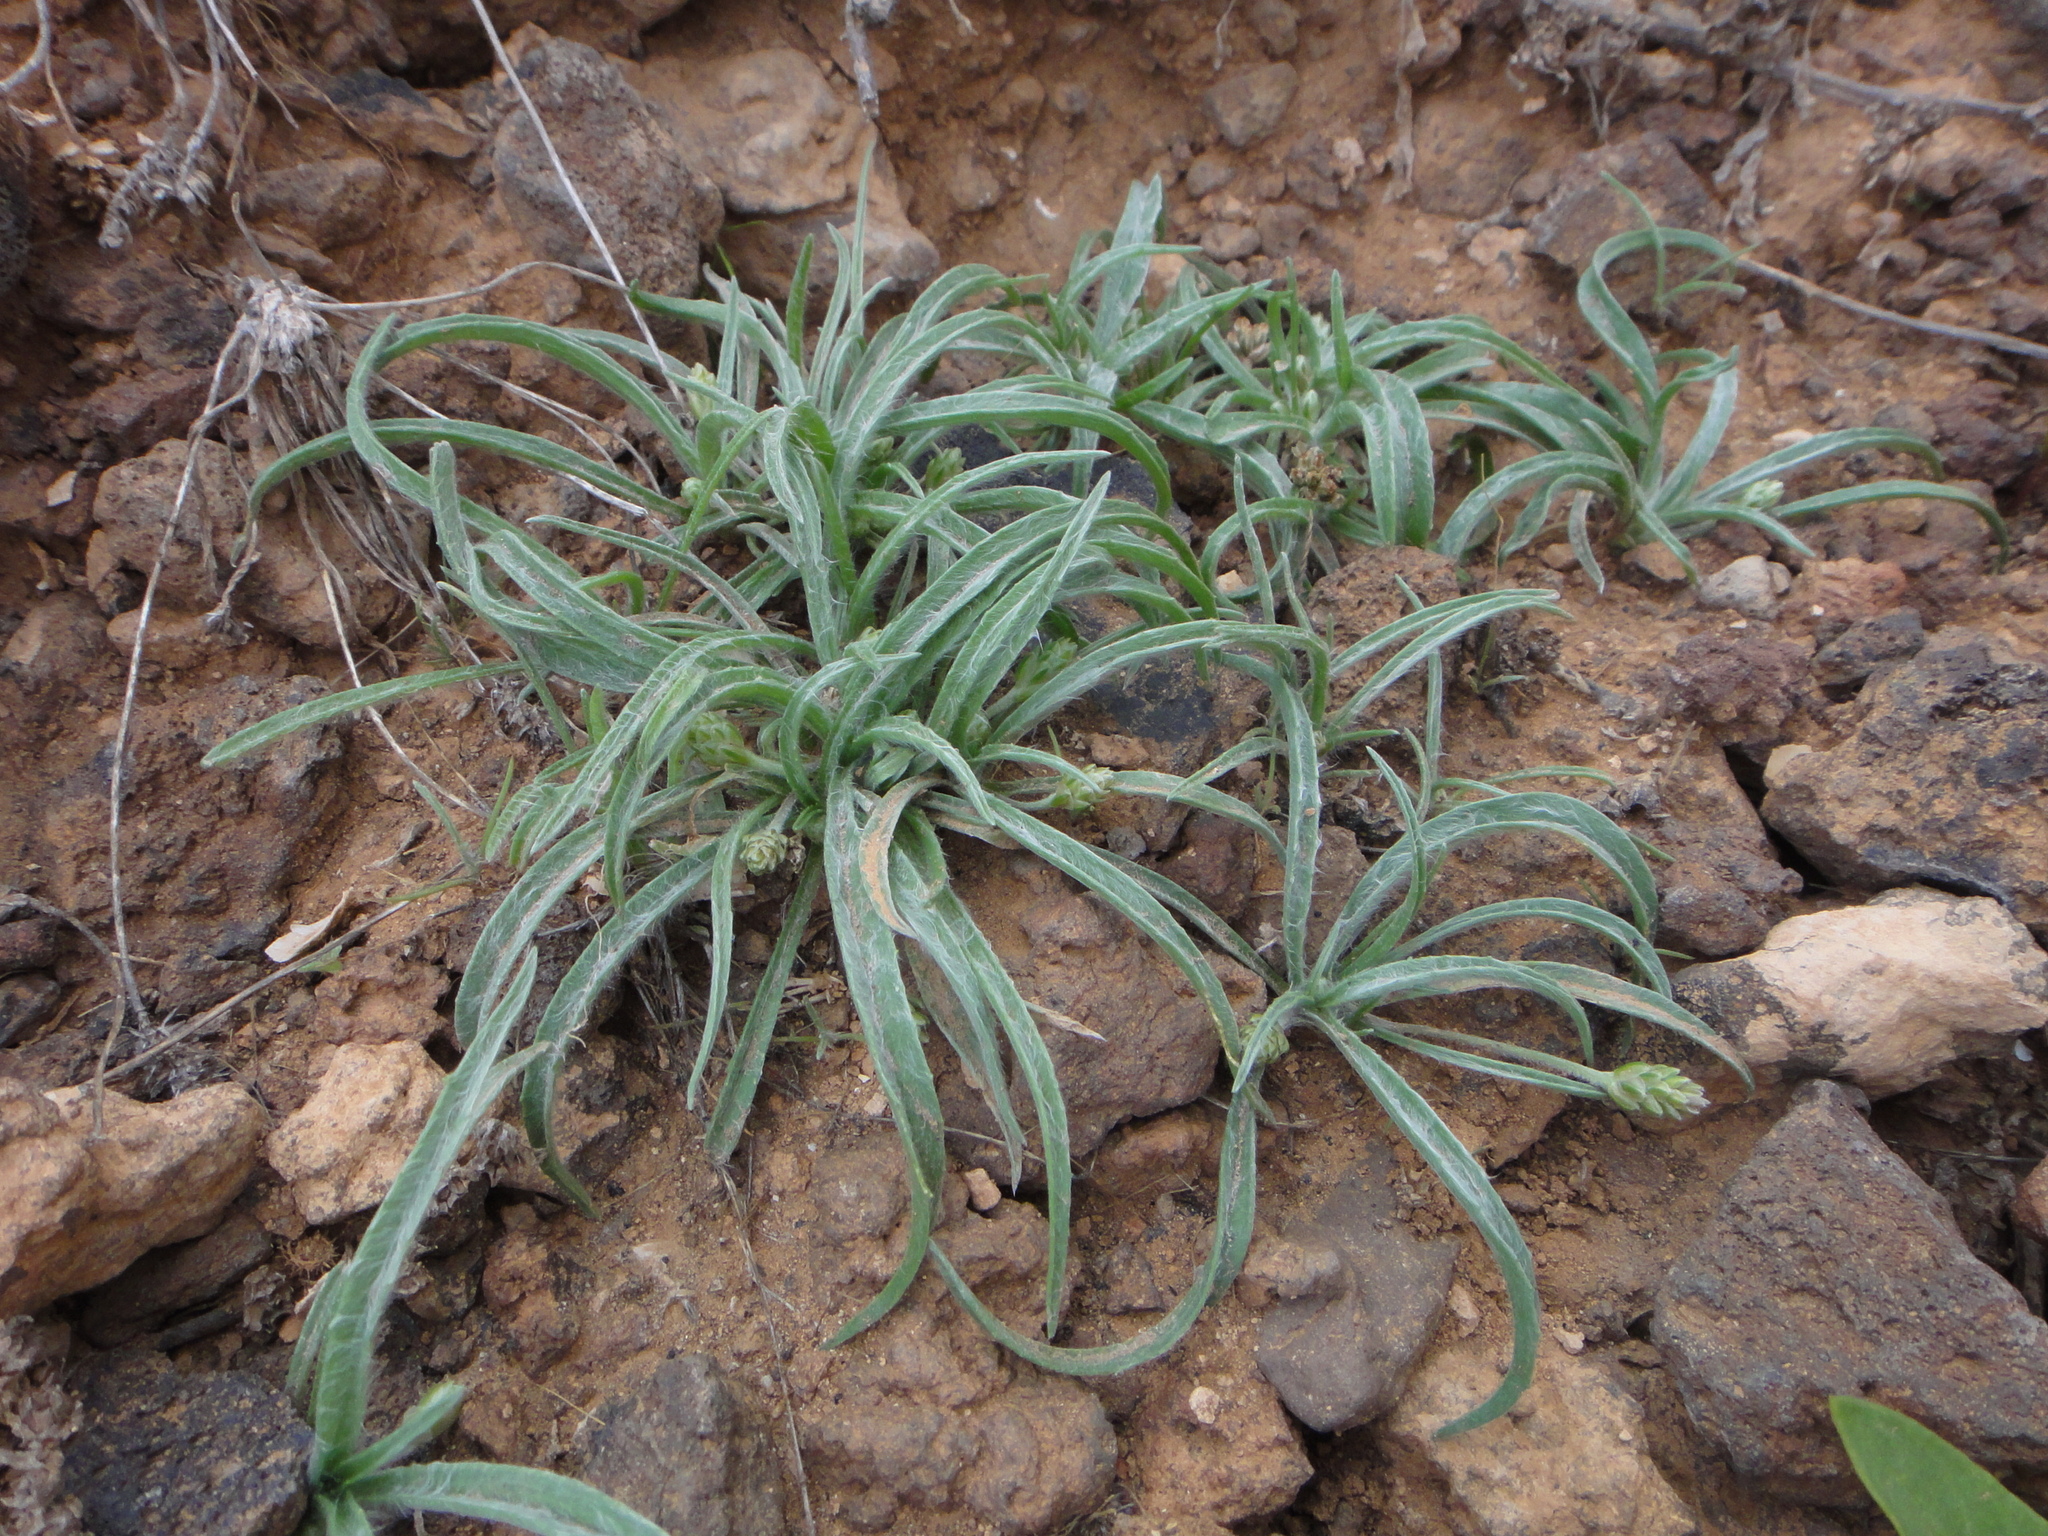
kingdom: Plantae
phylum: Tracheophyta
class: Magnoliopsida
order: Lamiales
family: Plantaginaceae
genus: Plantago
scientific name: Plantago ovata
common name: Blond plantain
